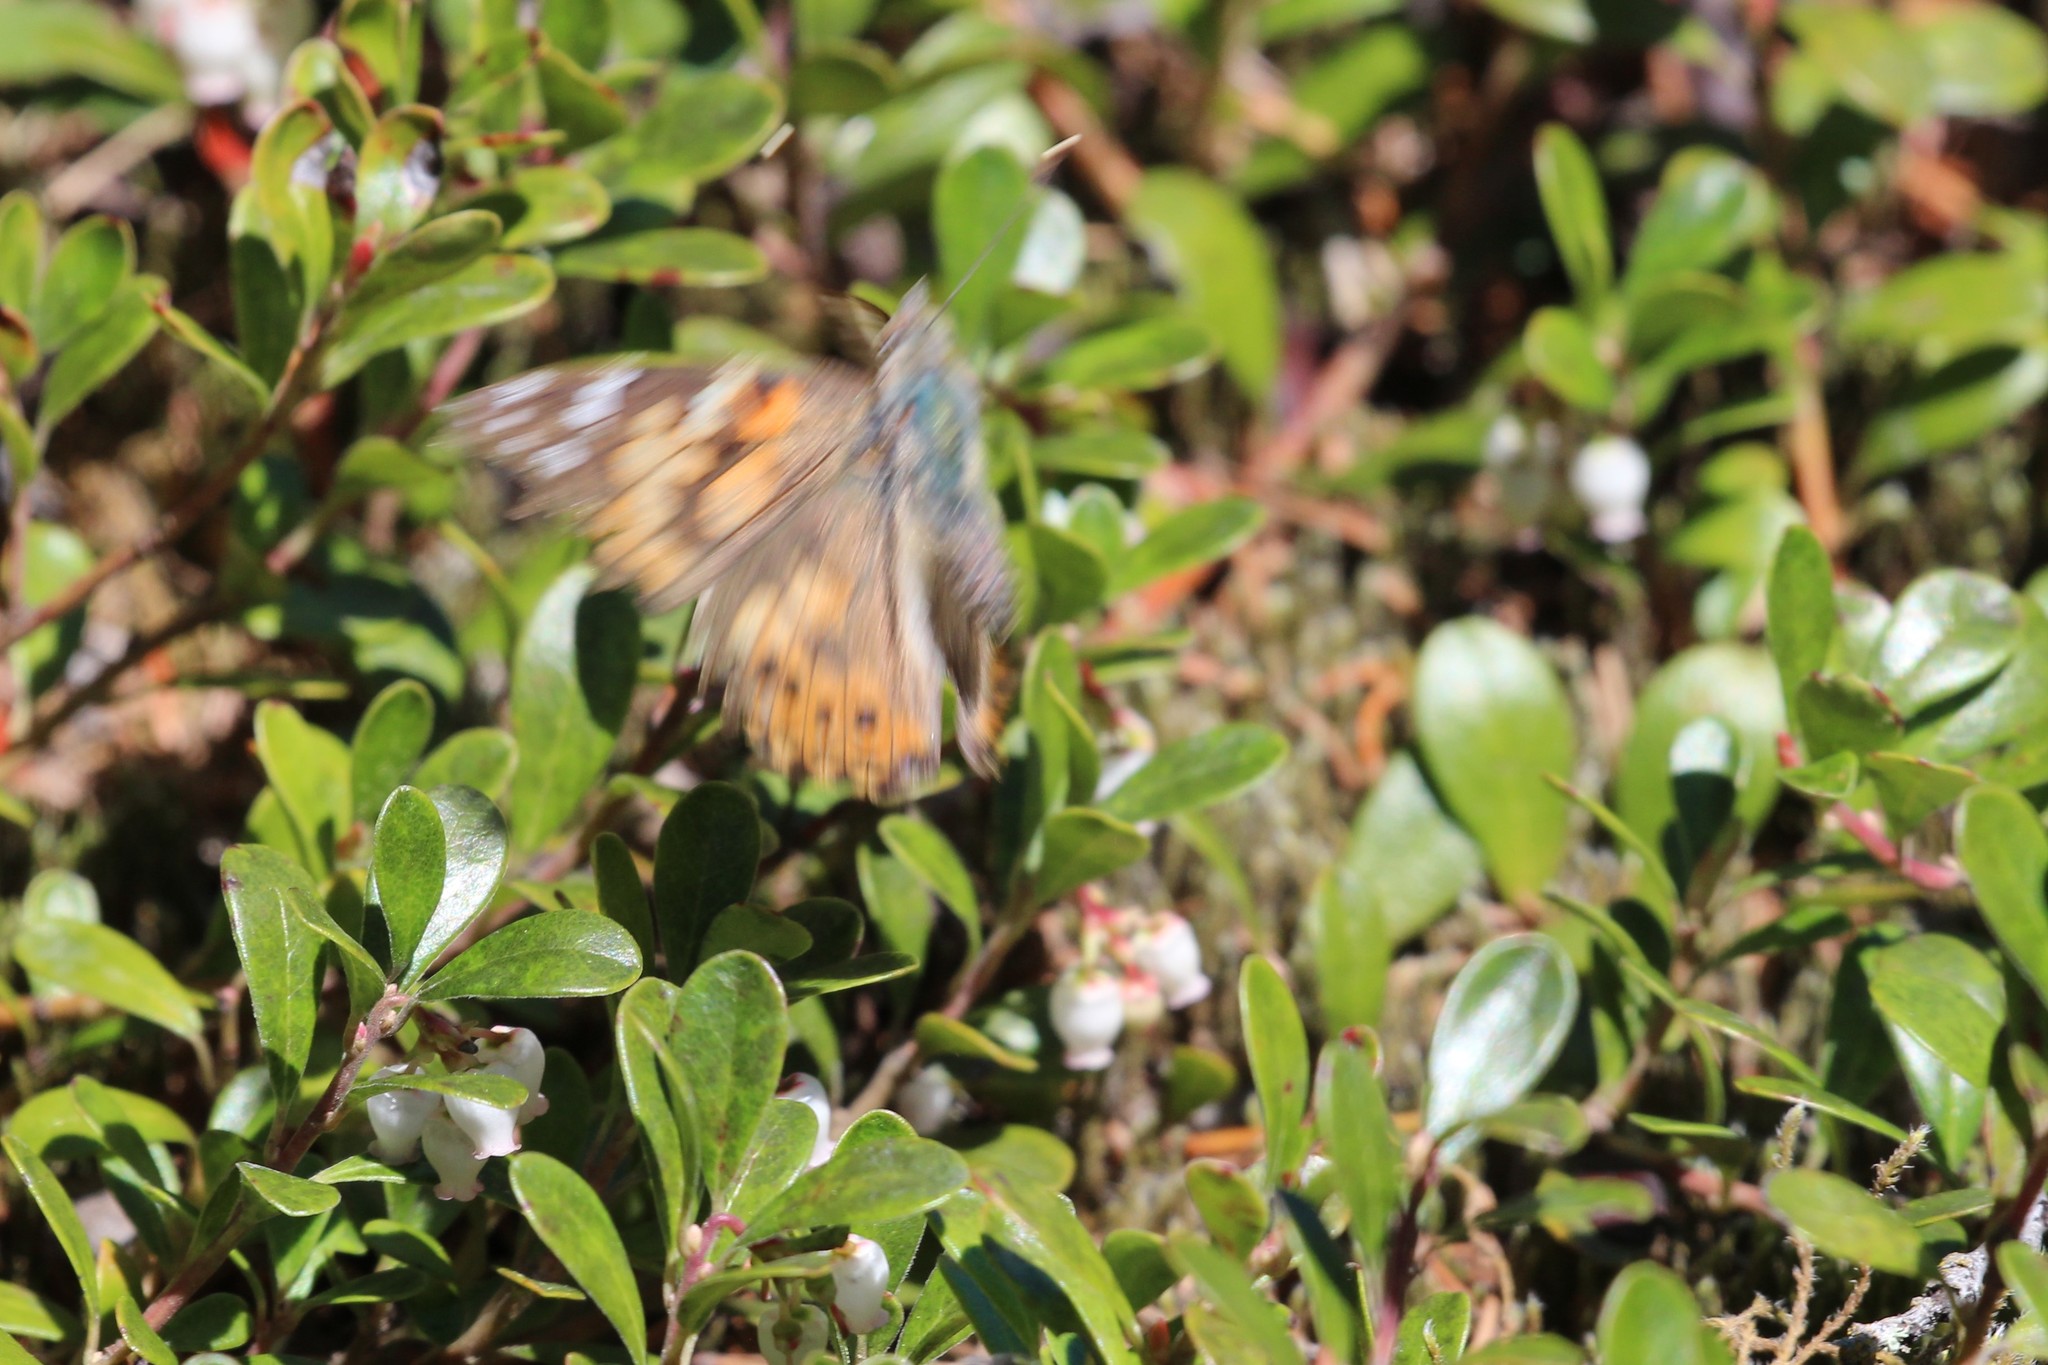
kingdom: Animalia
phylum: Arthropoda
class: Insecta
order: Lepidoptera
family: Nymphalidae
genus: Vanessa
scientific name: Vanessa cardui
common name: Painted lady
